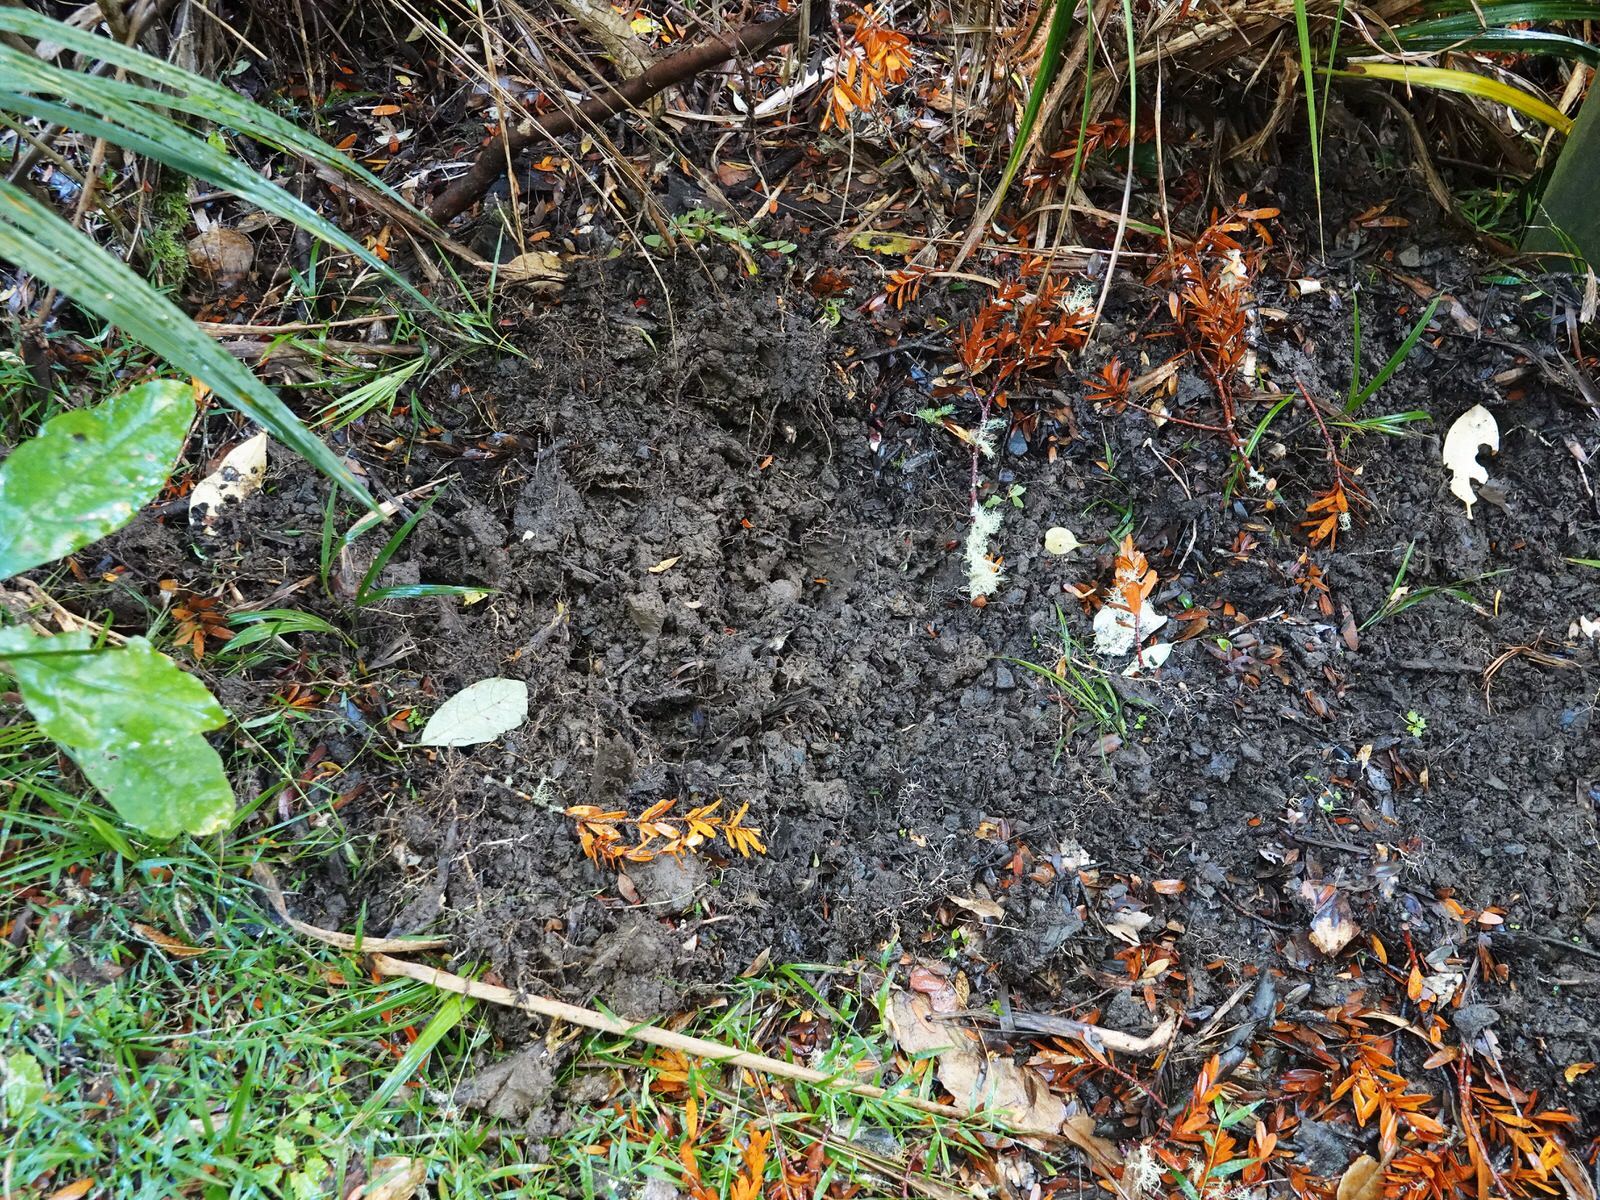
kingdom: Animalia
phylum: Chordata
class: Mammalia
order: Artiodactyla
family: Suidae
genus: Sus
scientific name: Sus scrofa
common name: Wild boar
